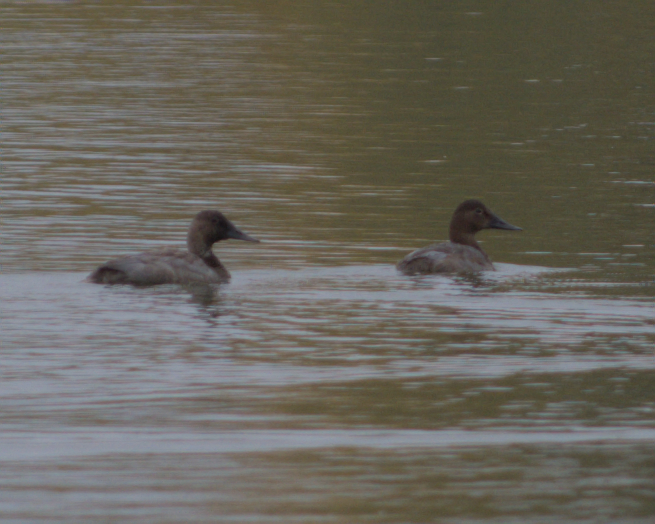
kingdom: Animalia
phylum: Chordata
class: Aves
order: Anseriformes
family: Anatidae
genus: Aythya
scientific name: Aythya valisineria
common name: Canvasback
